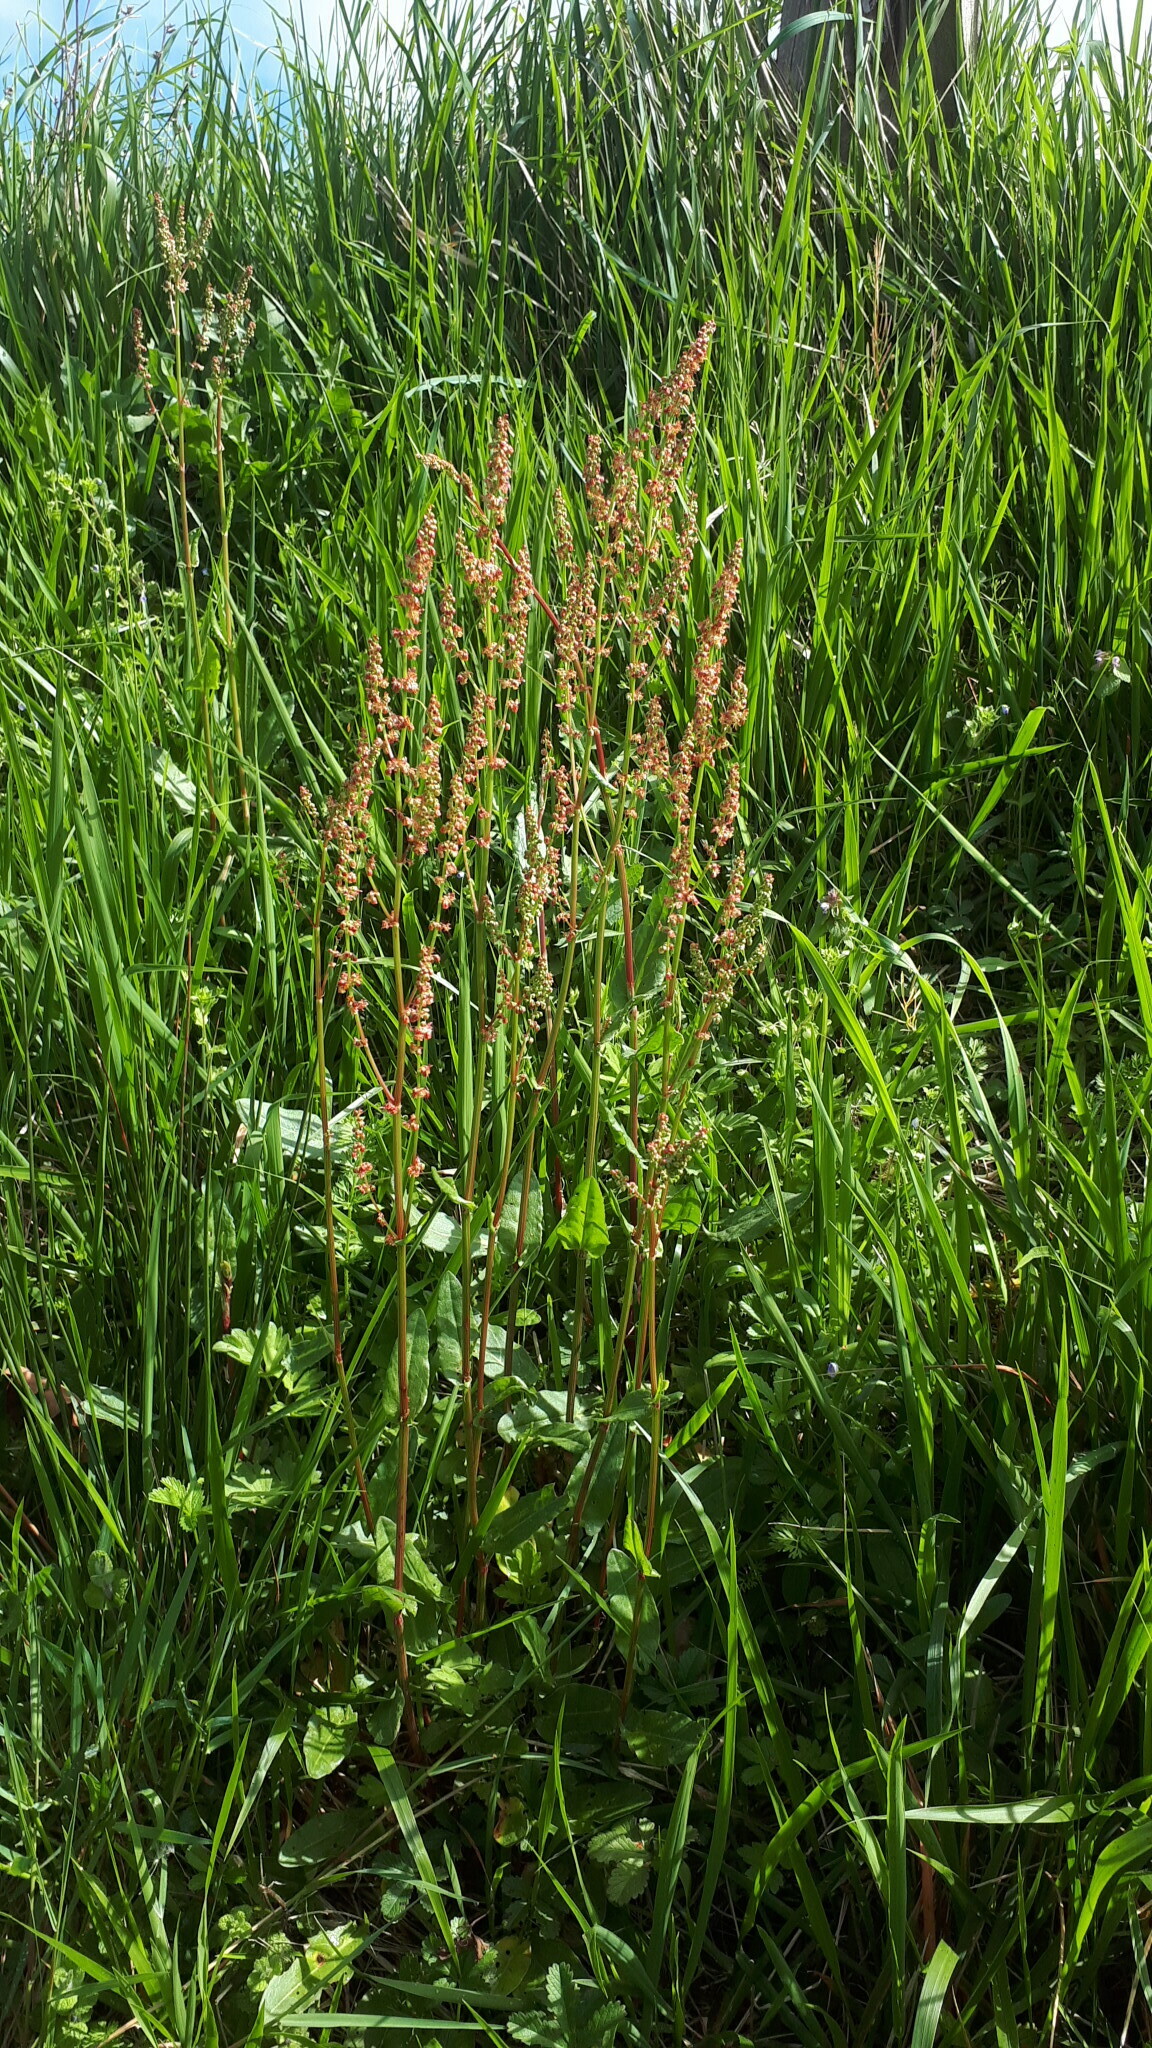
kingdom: Plantae
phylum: Tracheophyta
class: Magnoliopsida
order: Caryophyllales
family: Polygonaceae
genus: Rumex
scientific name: Rumex acetosa
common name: Garden sorrel
